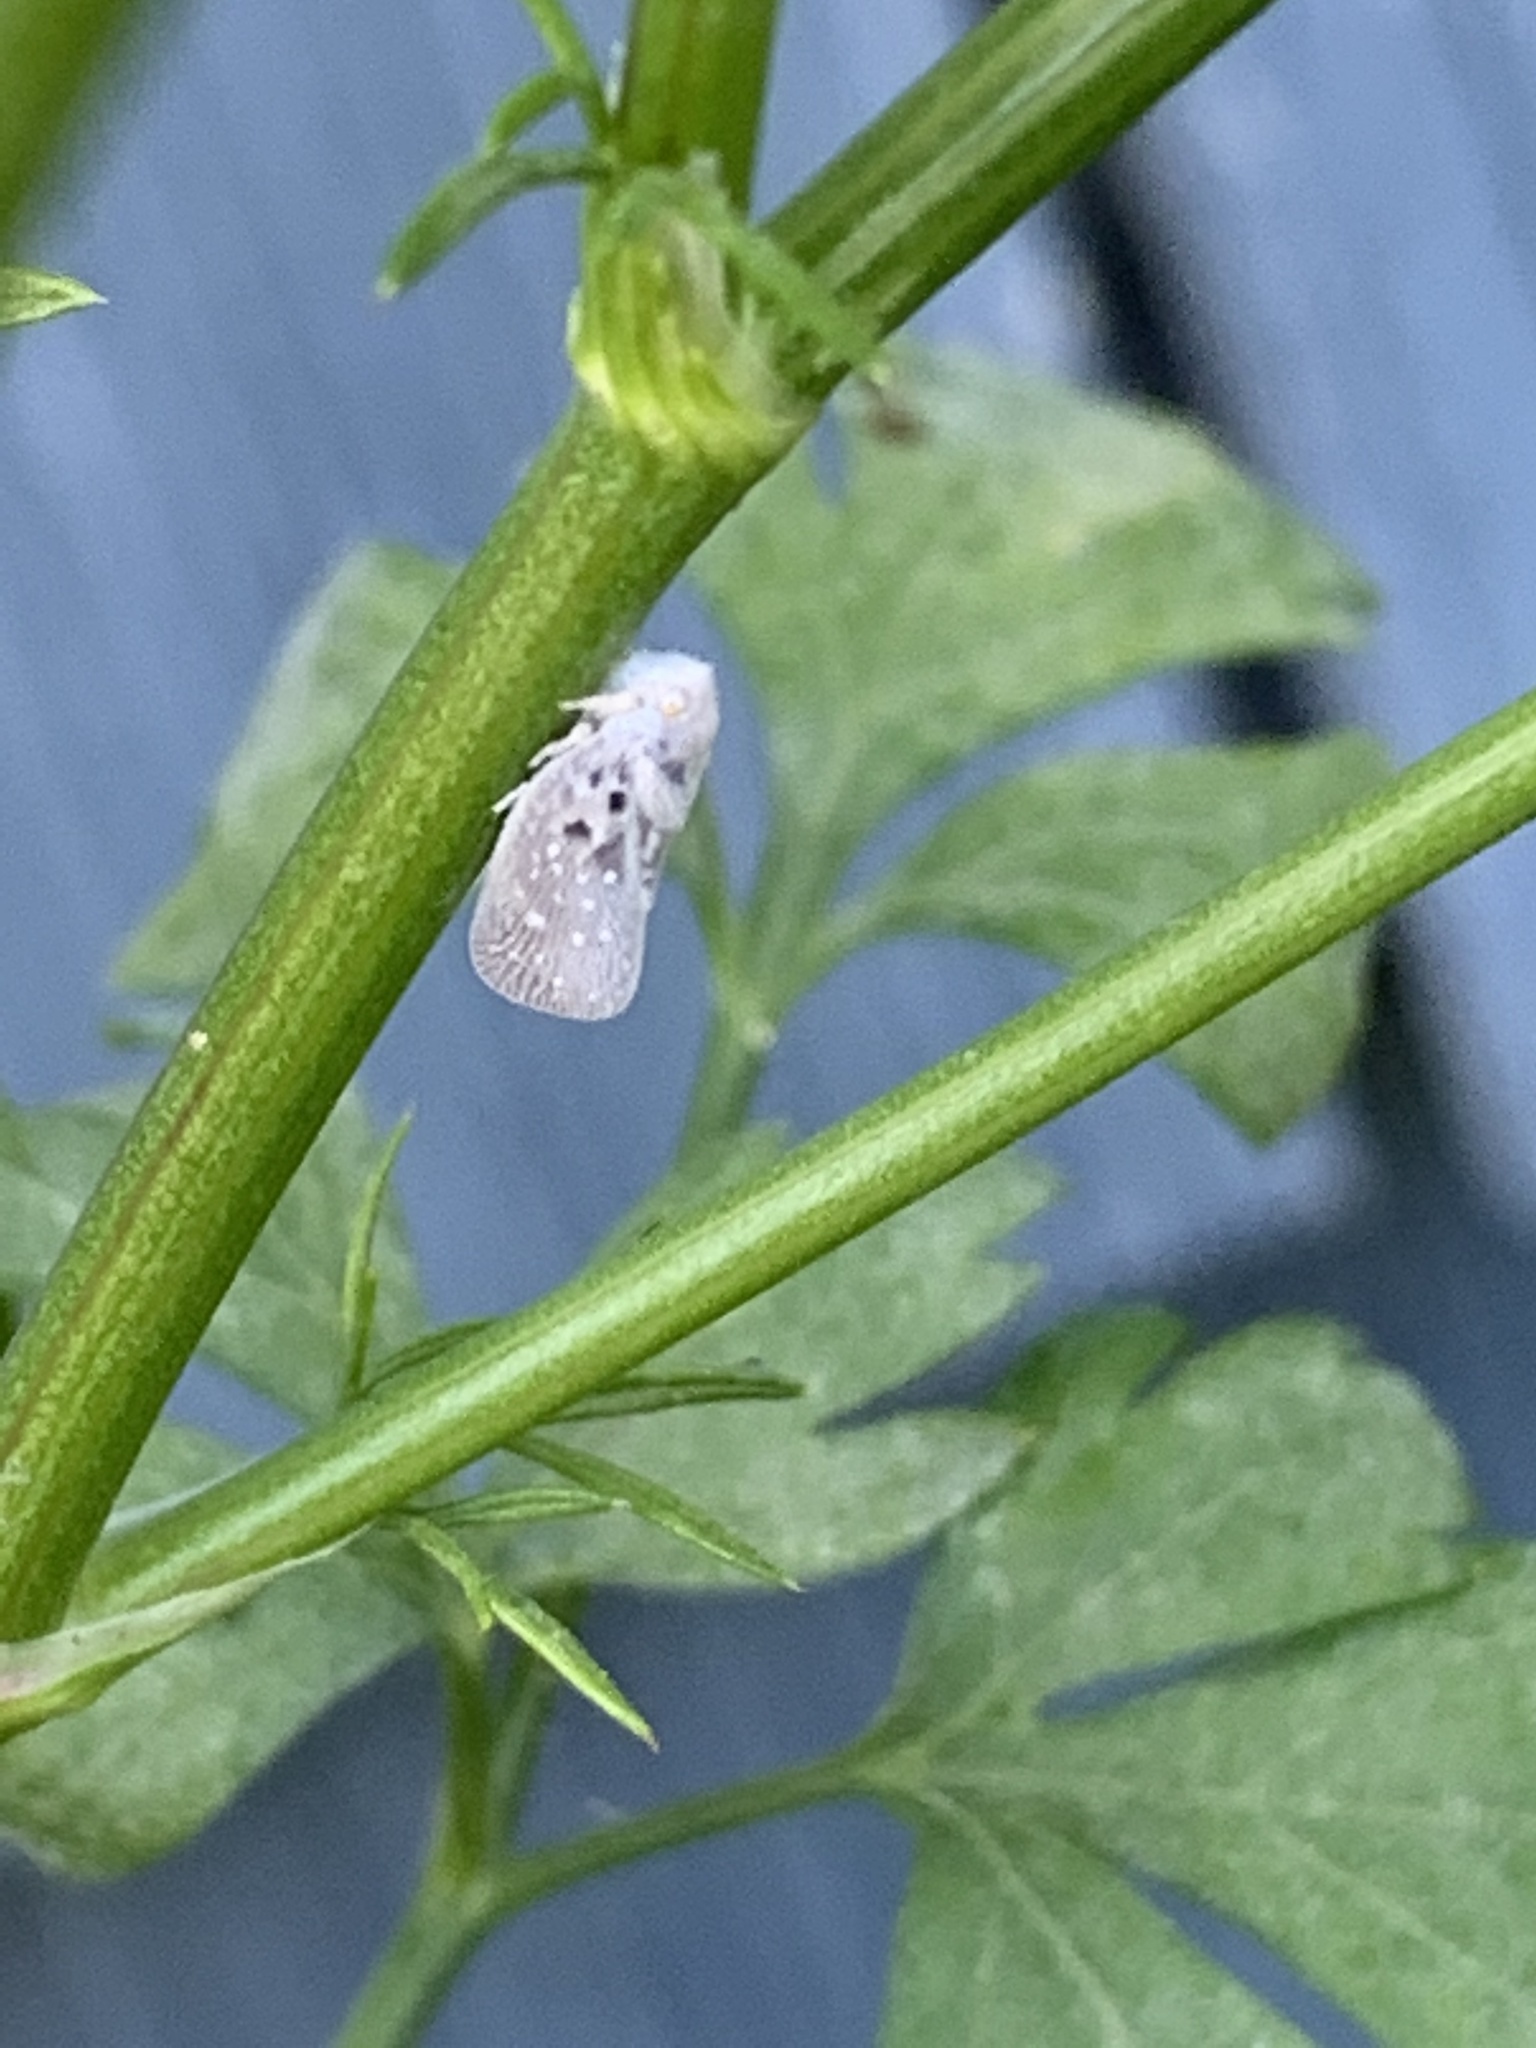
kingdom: Animalia
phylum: Arthropoda
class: Insecta
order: Hemiptera
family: Flatidae
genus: Metcalfa
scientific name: Metcalfa pruinosa
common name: Citrus flatid planthopper
